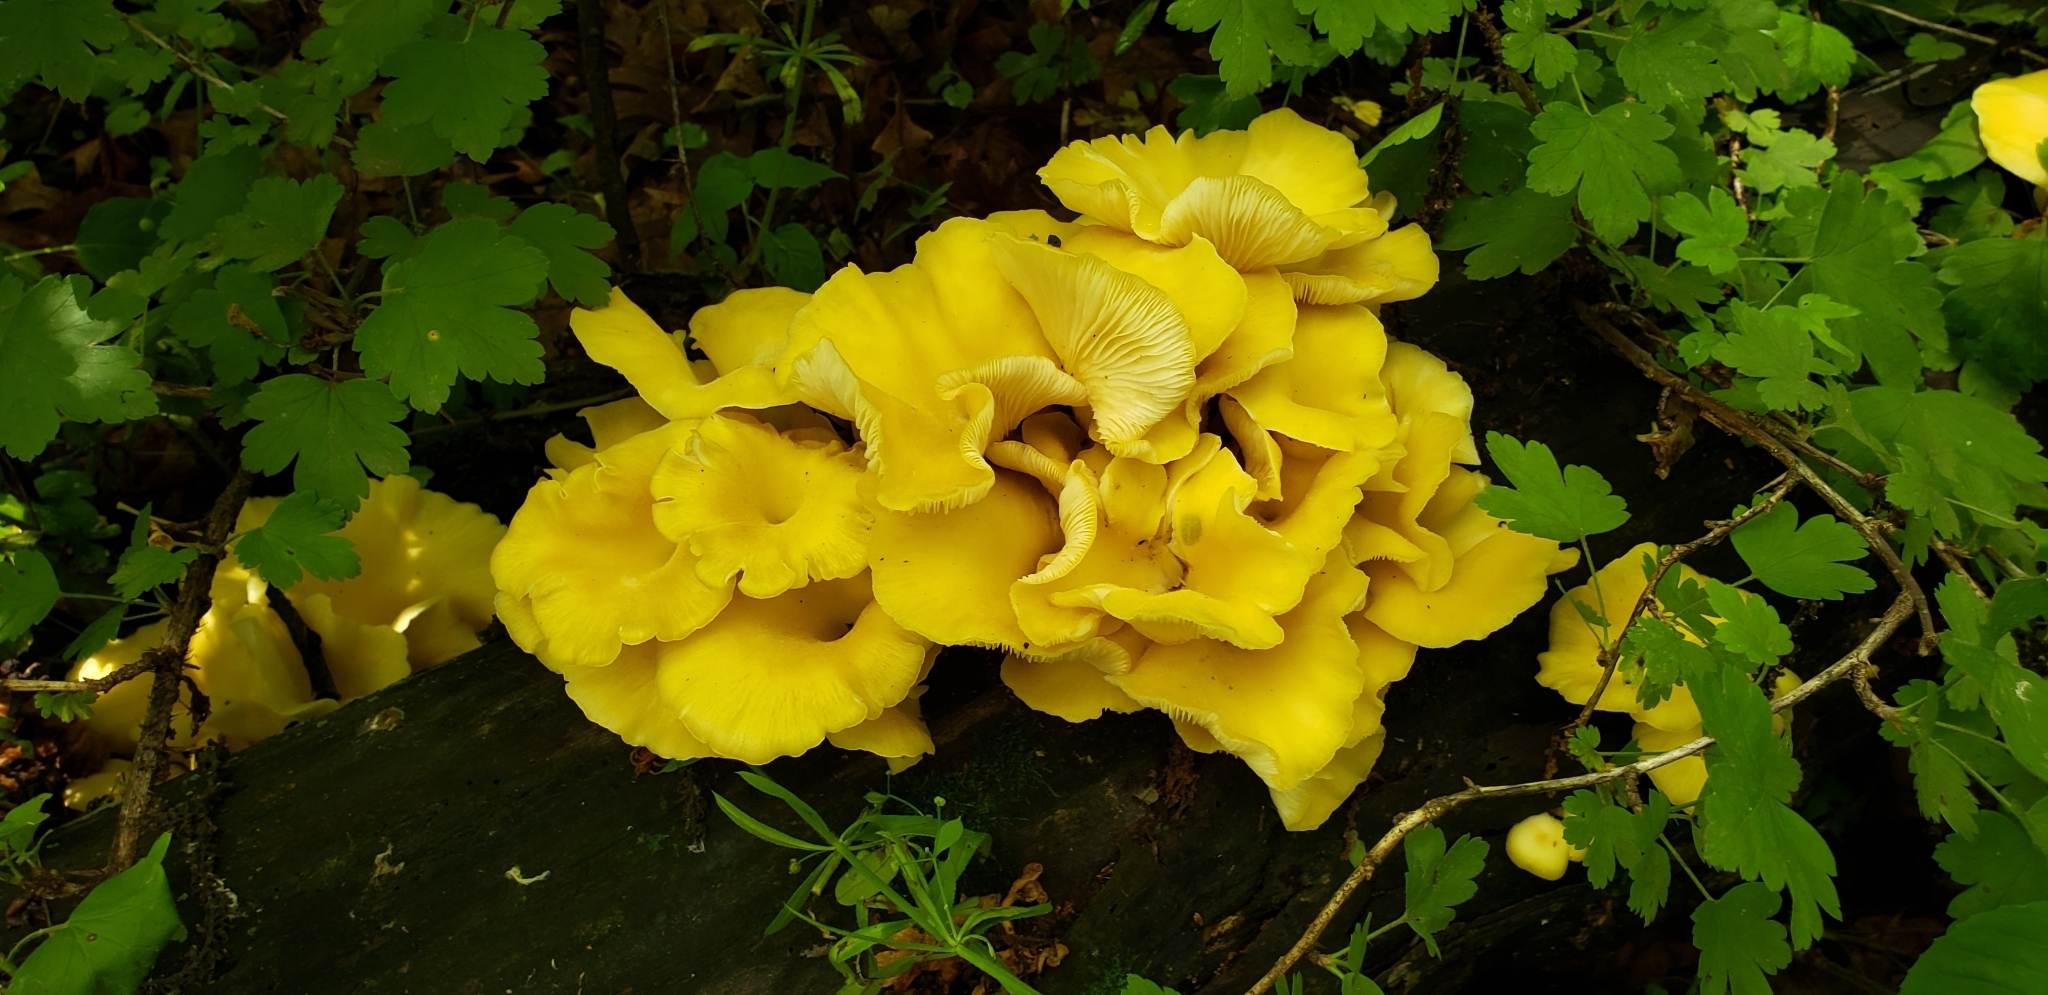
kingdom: Fungi
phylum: Basidiomycota
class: Agaricomycetes
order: Agaricales
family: Pleurotaceae
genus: Pleurotus
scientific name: Pleurotus citrinopileatus
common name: Golden oyster mushroom
